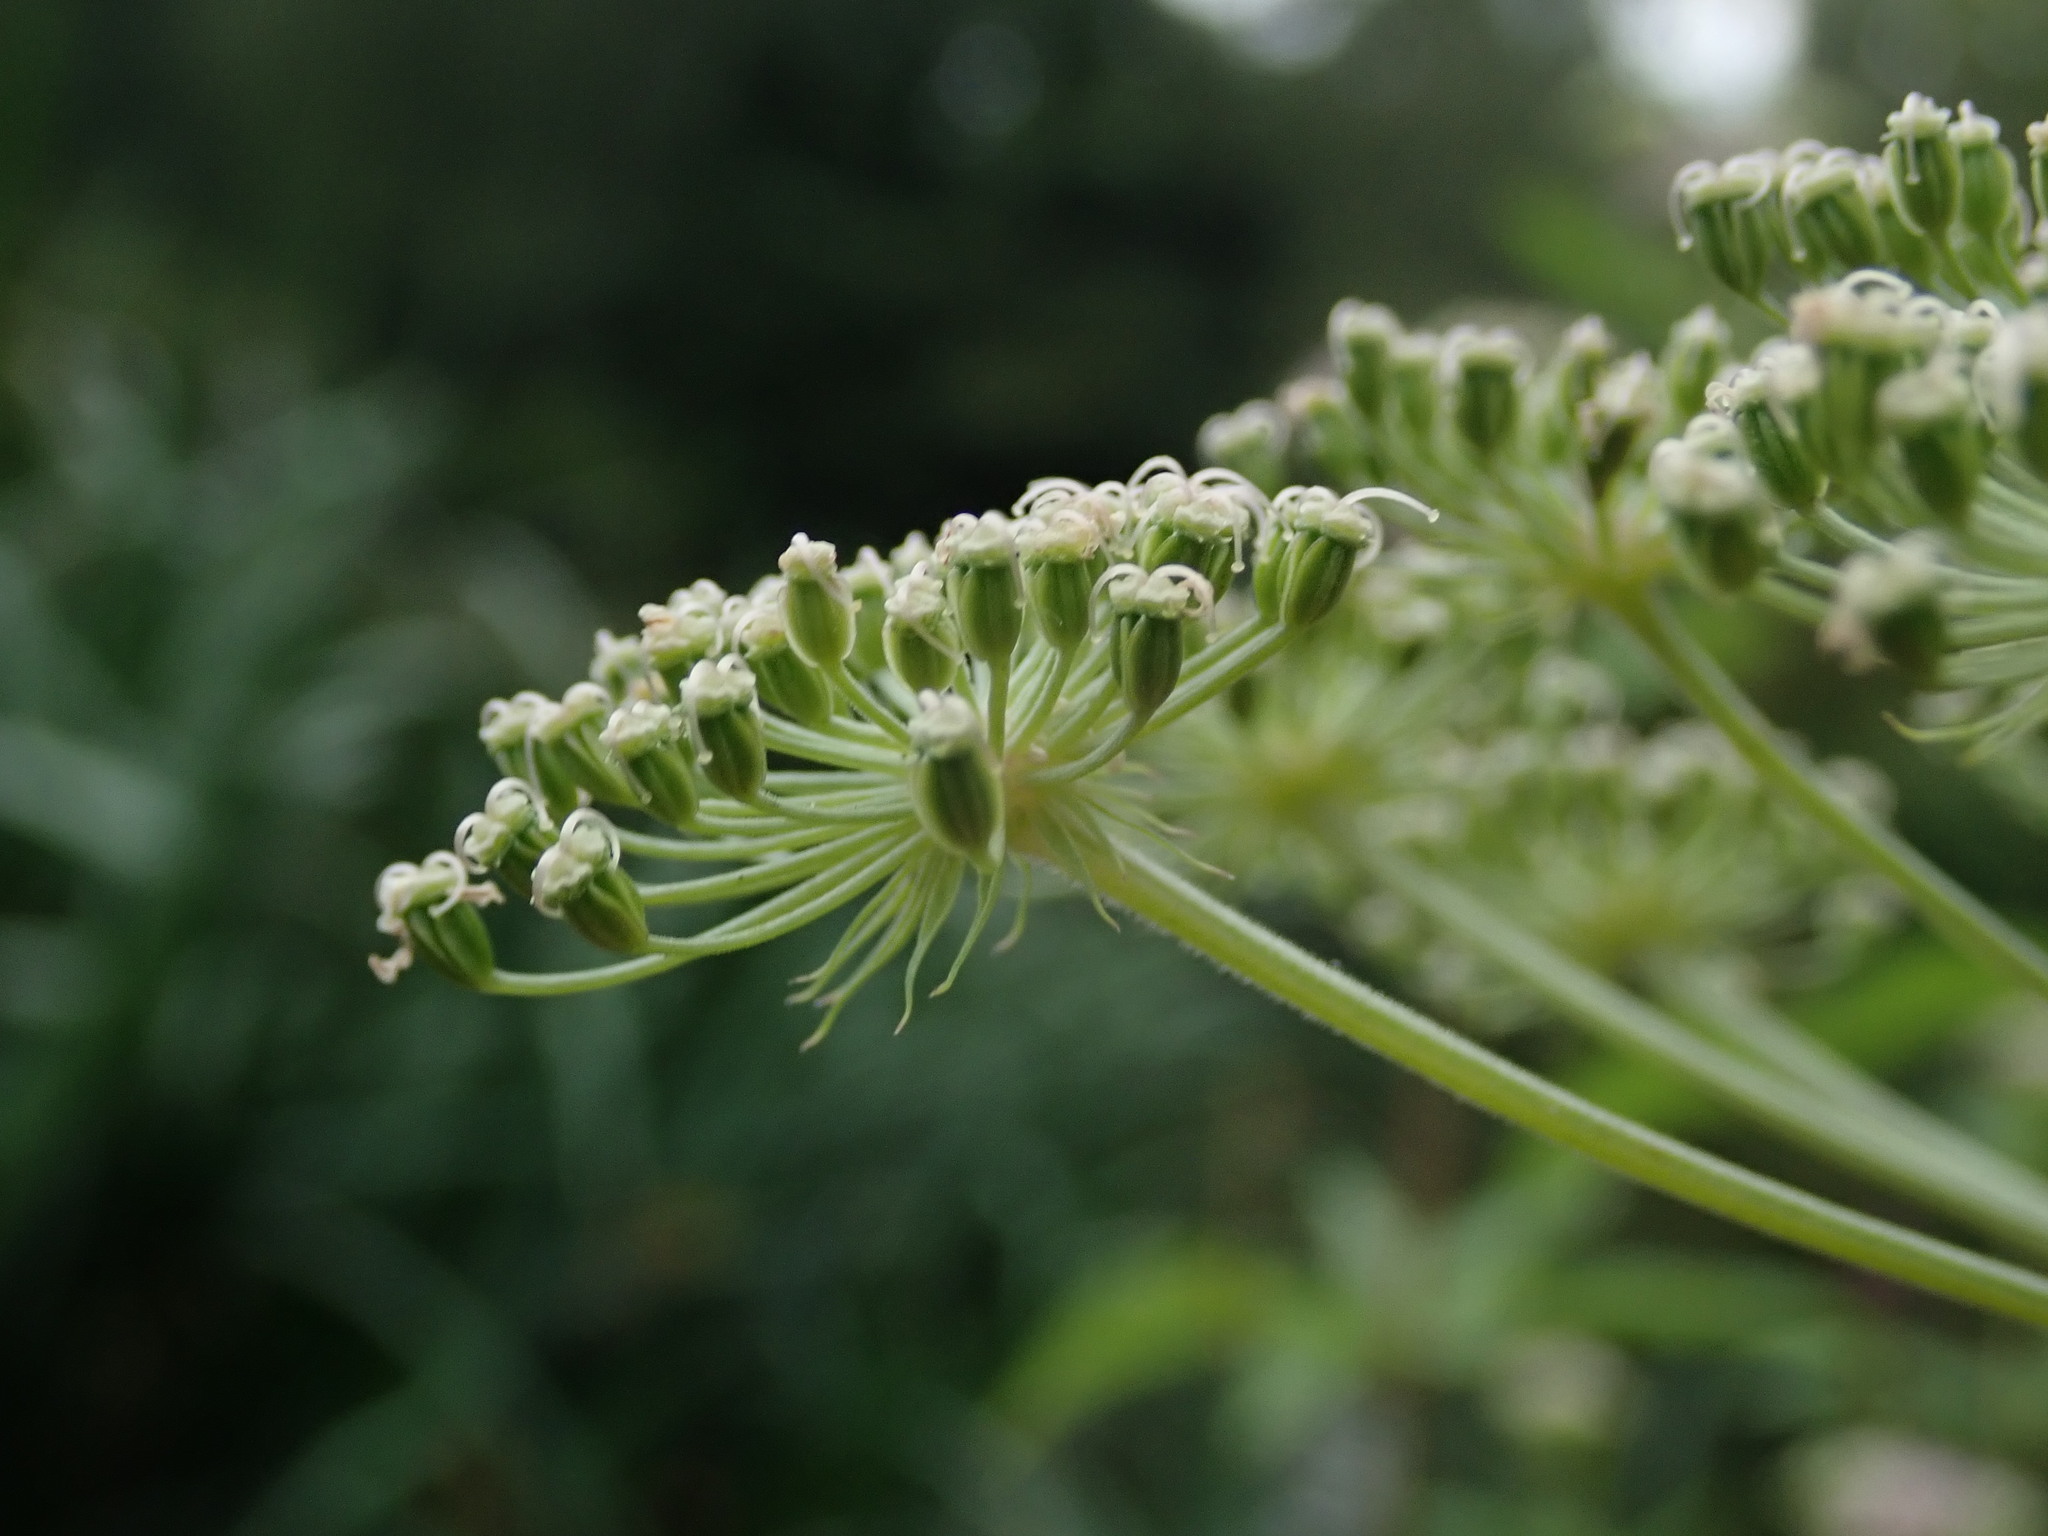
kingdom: Plantae
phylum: Tracheophyta
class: Magnoliopsida
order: Apiales
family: Apiaceae
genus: Angelica
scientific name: Angelica sylvestris
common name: Wild angelica
